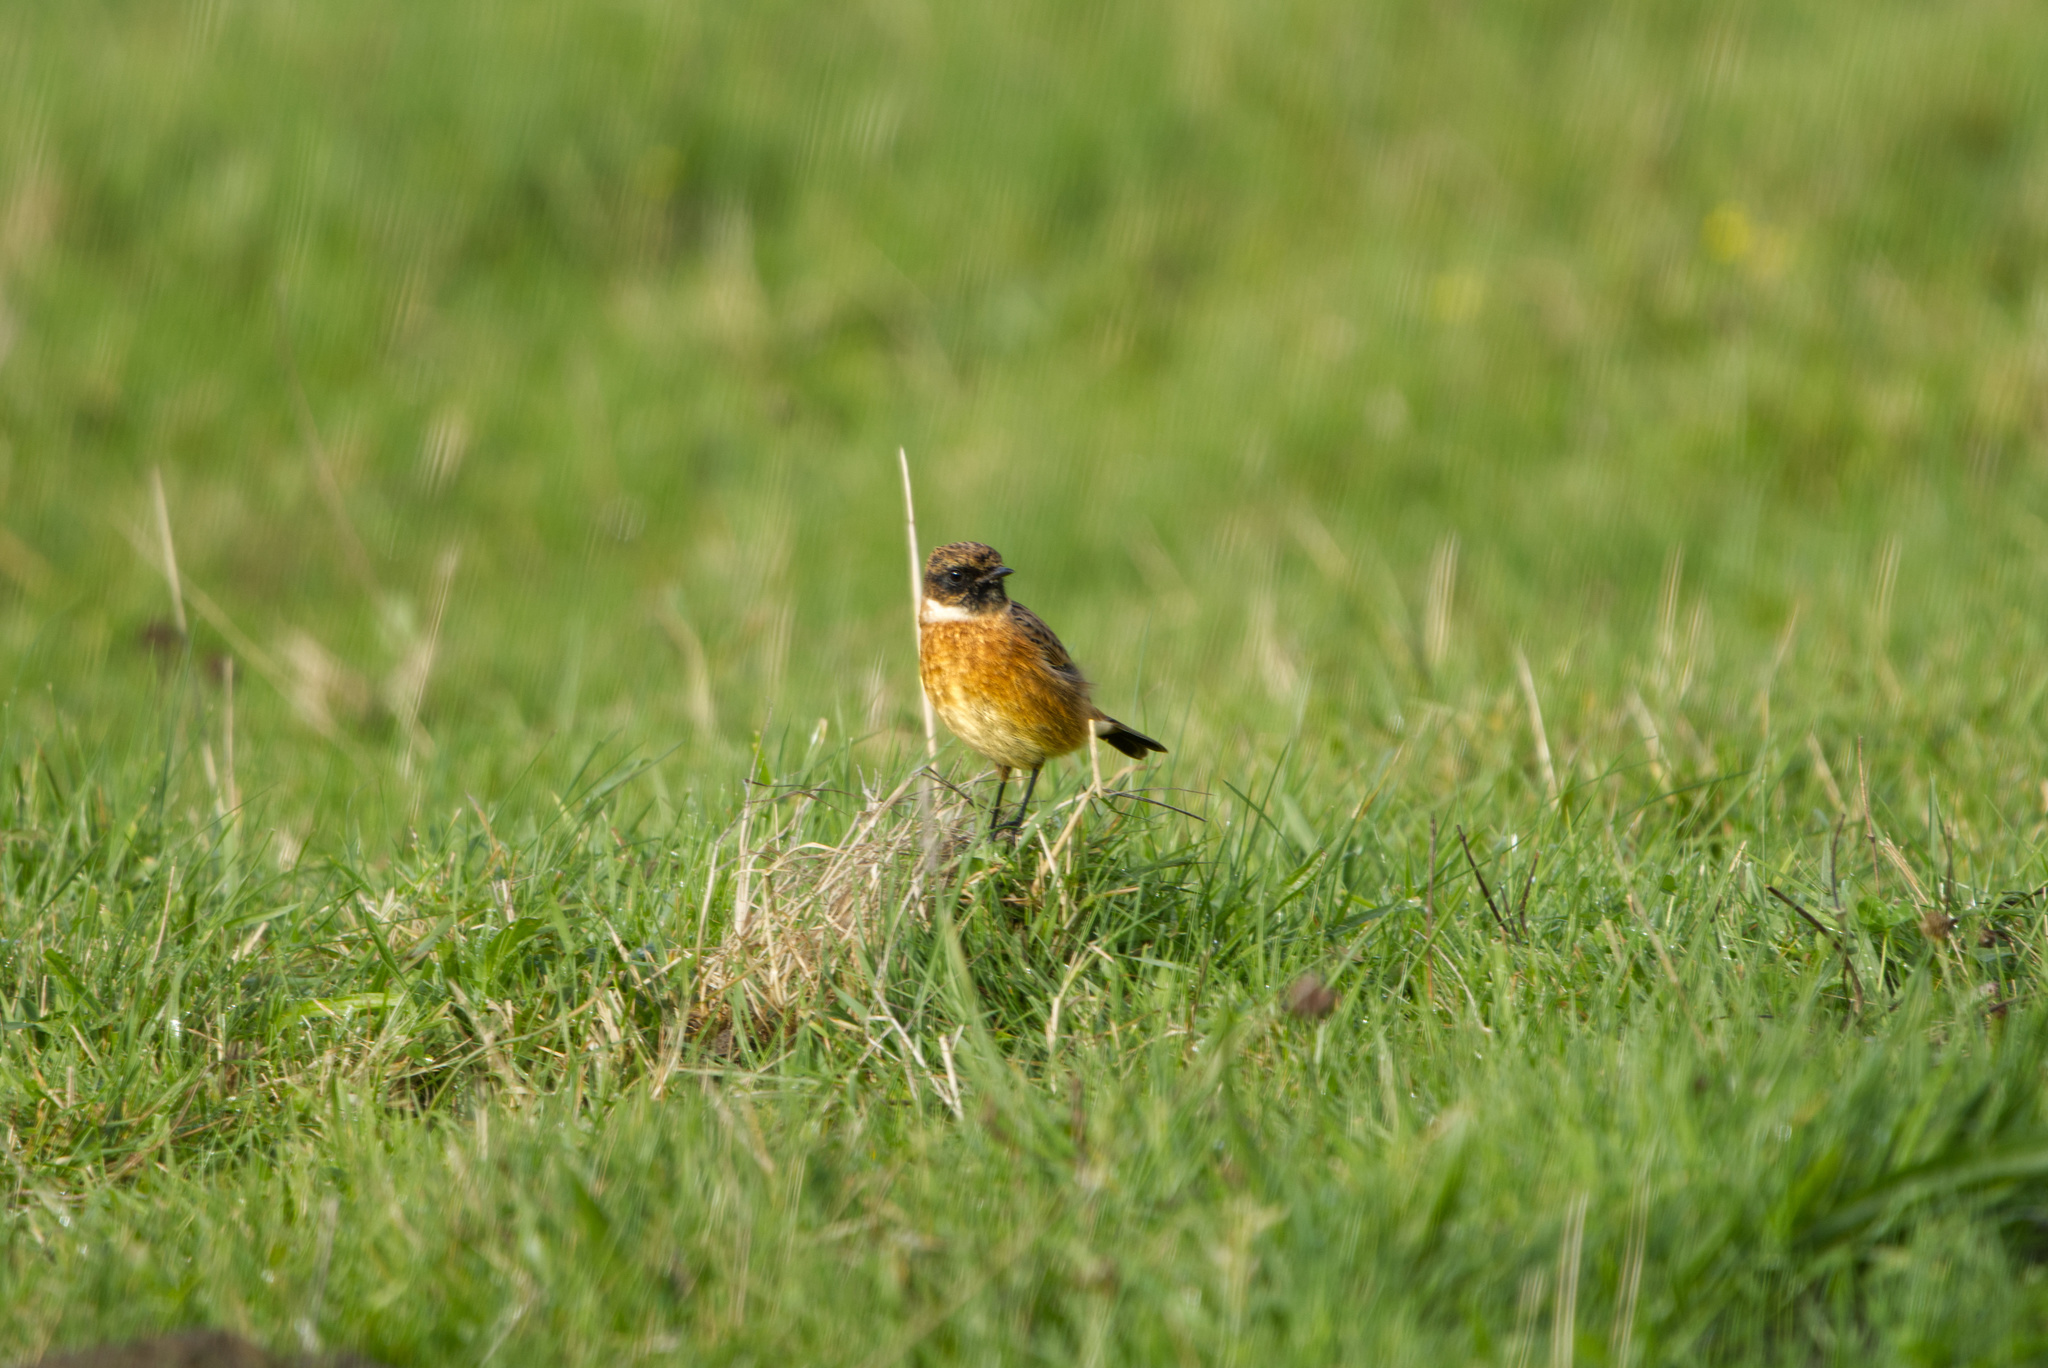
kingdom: Animalia
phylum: Chordata
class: Aves
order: Passeriformes
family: Muscicapidae
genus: Saxicola
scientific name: Saxicola rubicola
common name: European stonechat
